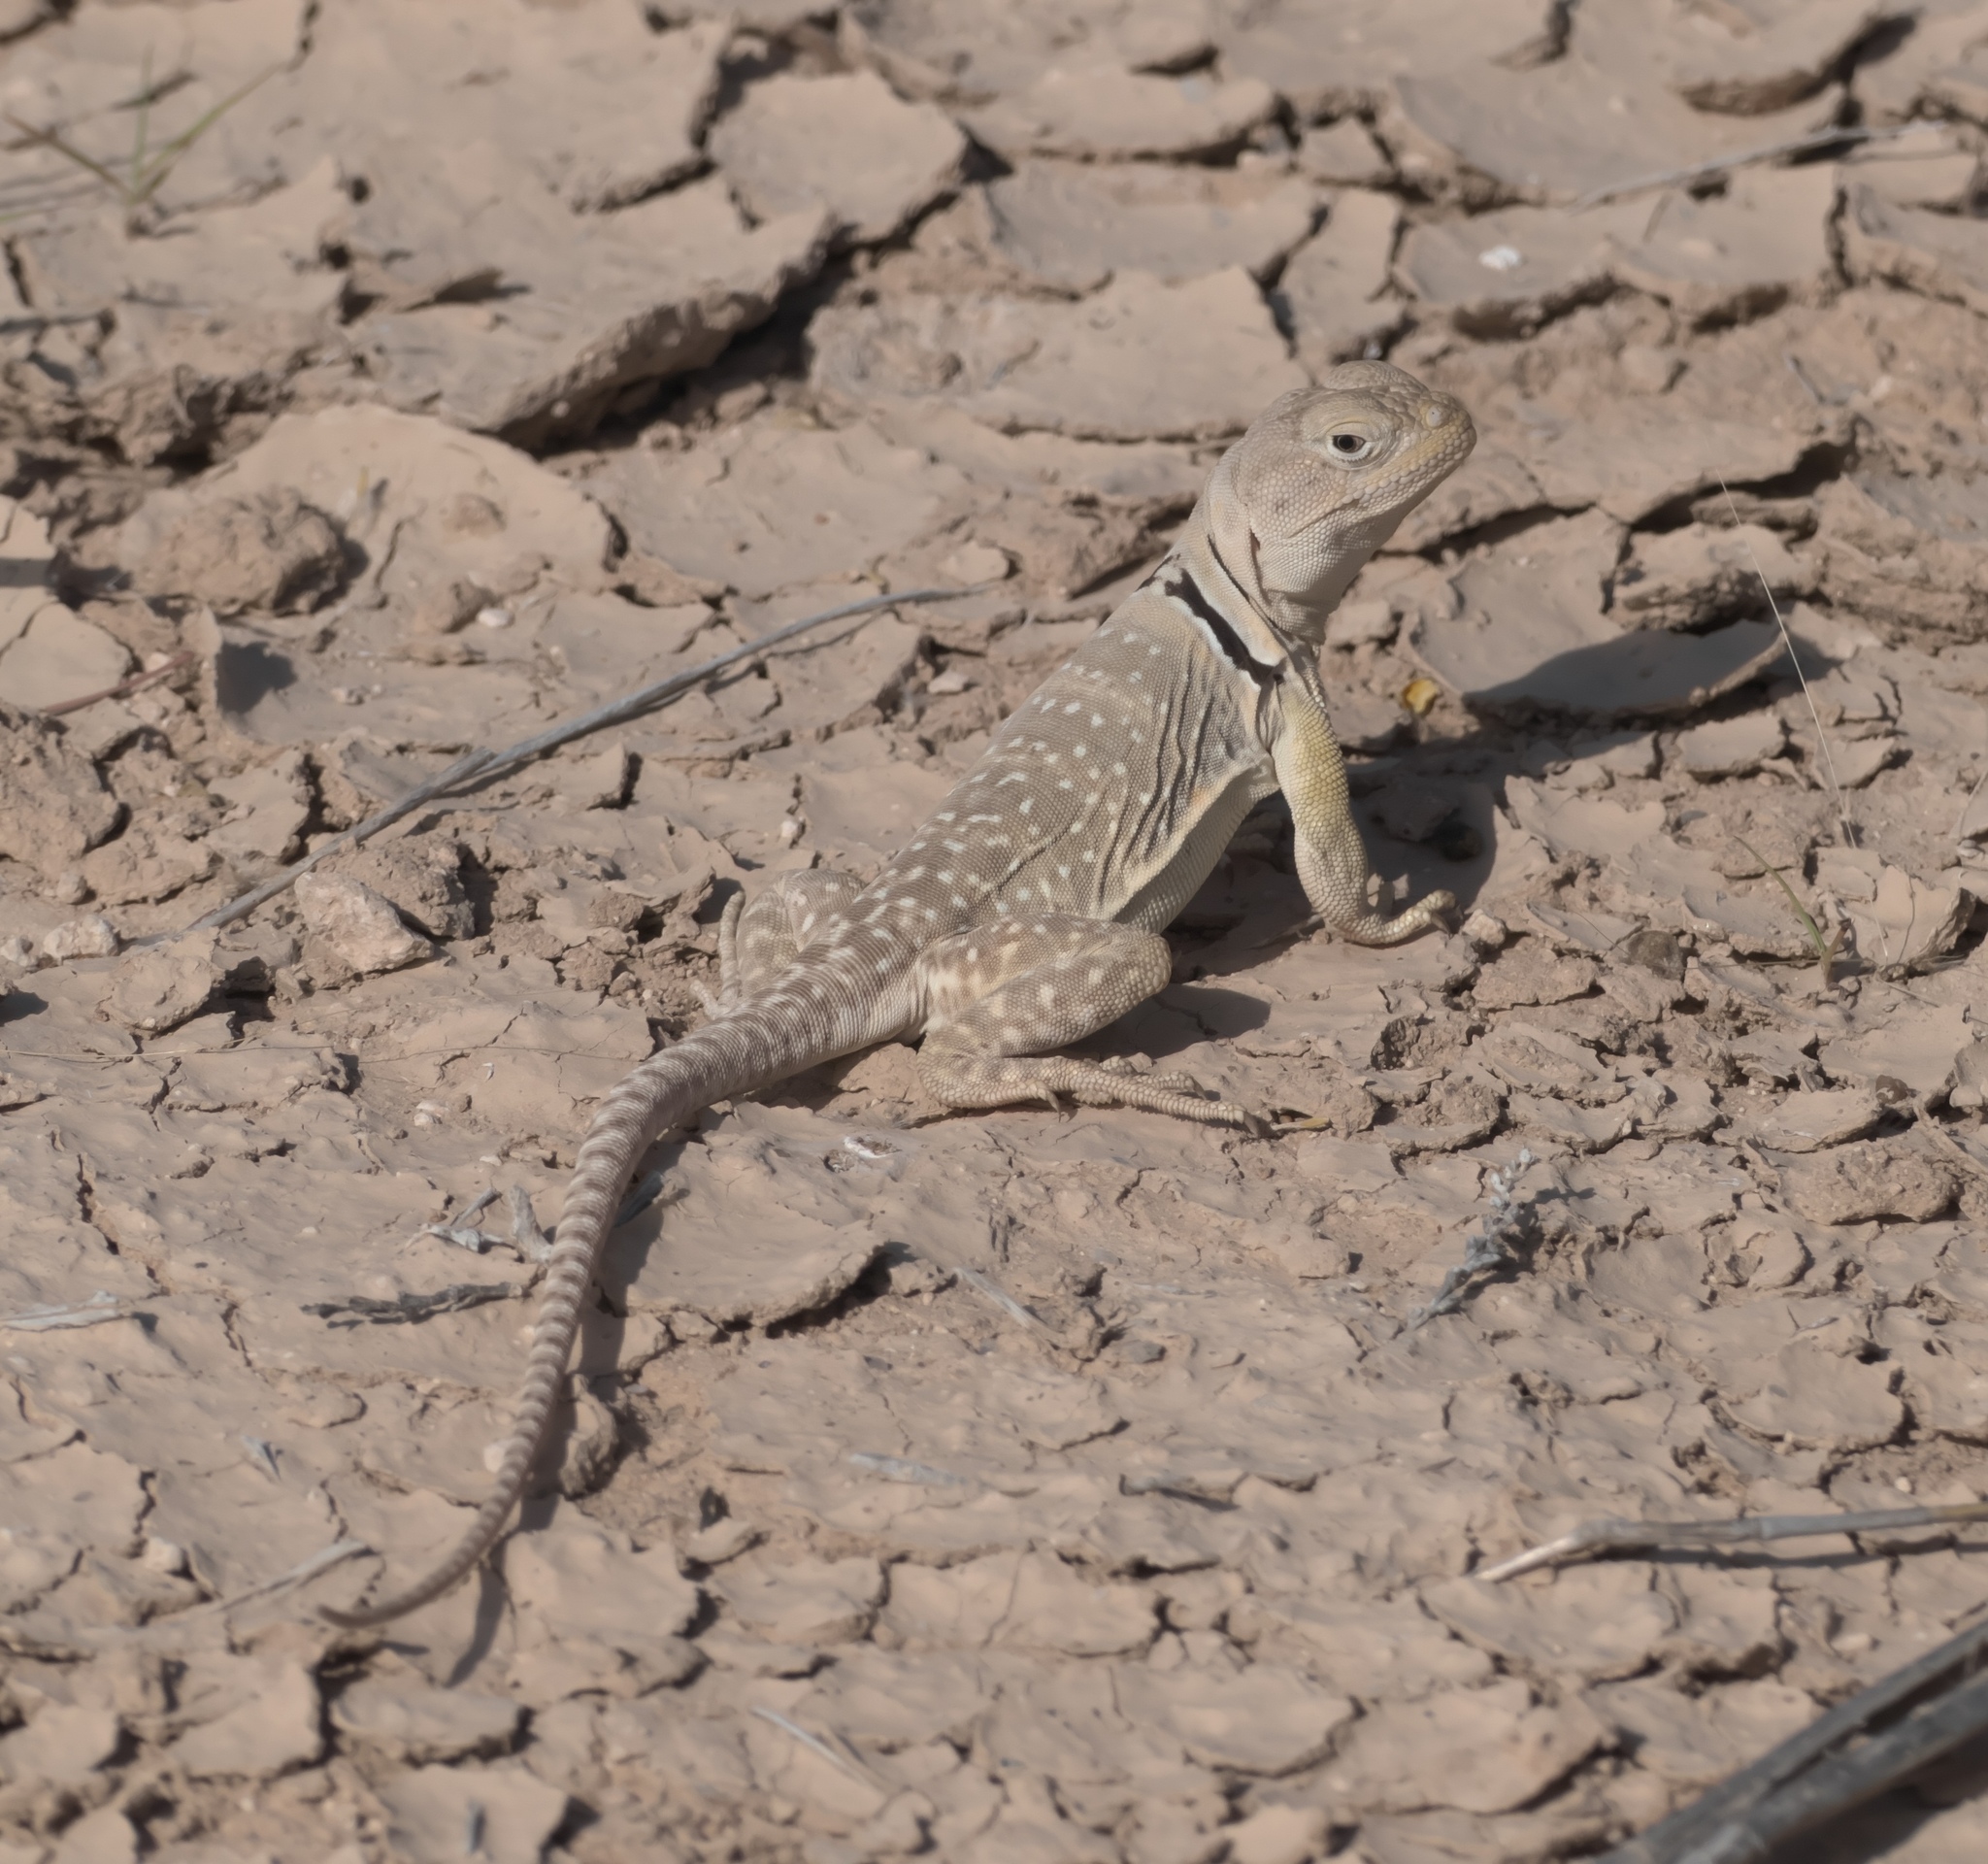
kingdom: Animalia
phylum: Chordata
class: Squamata
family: Crotaphytidae
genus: Crotaphytus
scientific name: Crotaphytus collaris
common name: Collared lizard
